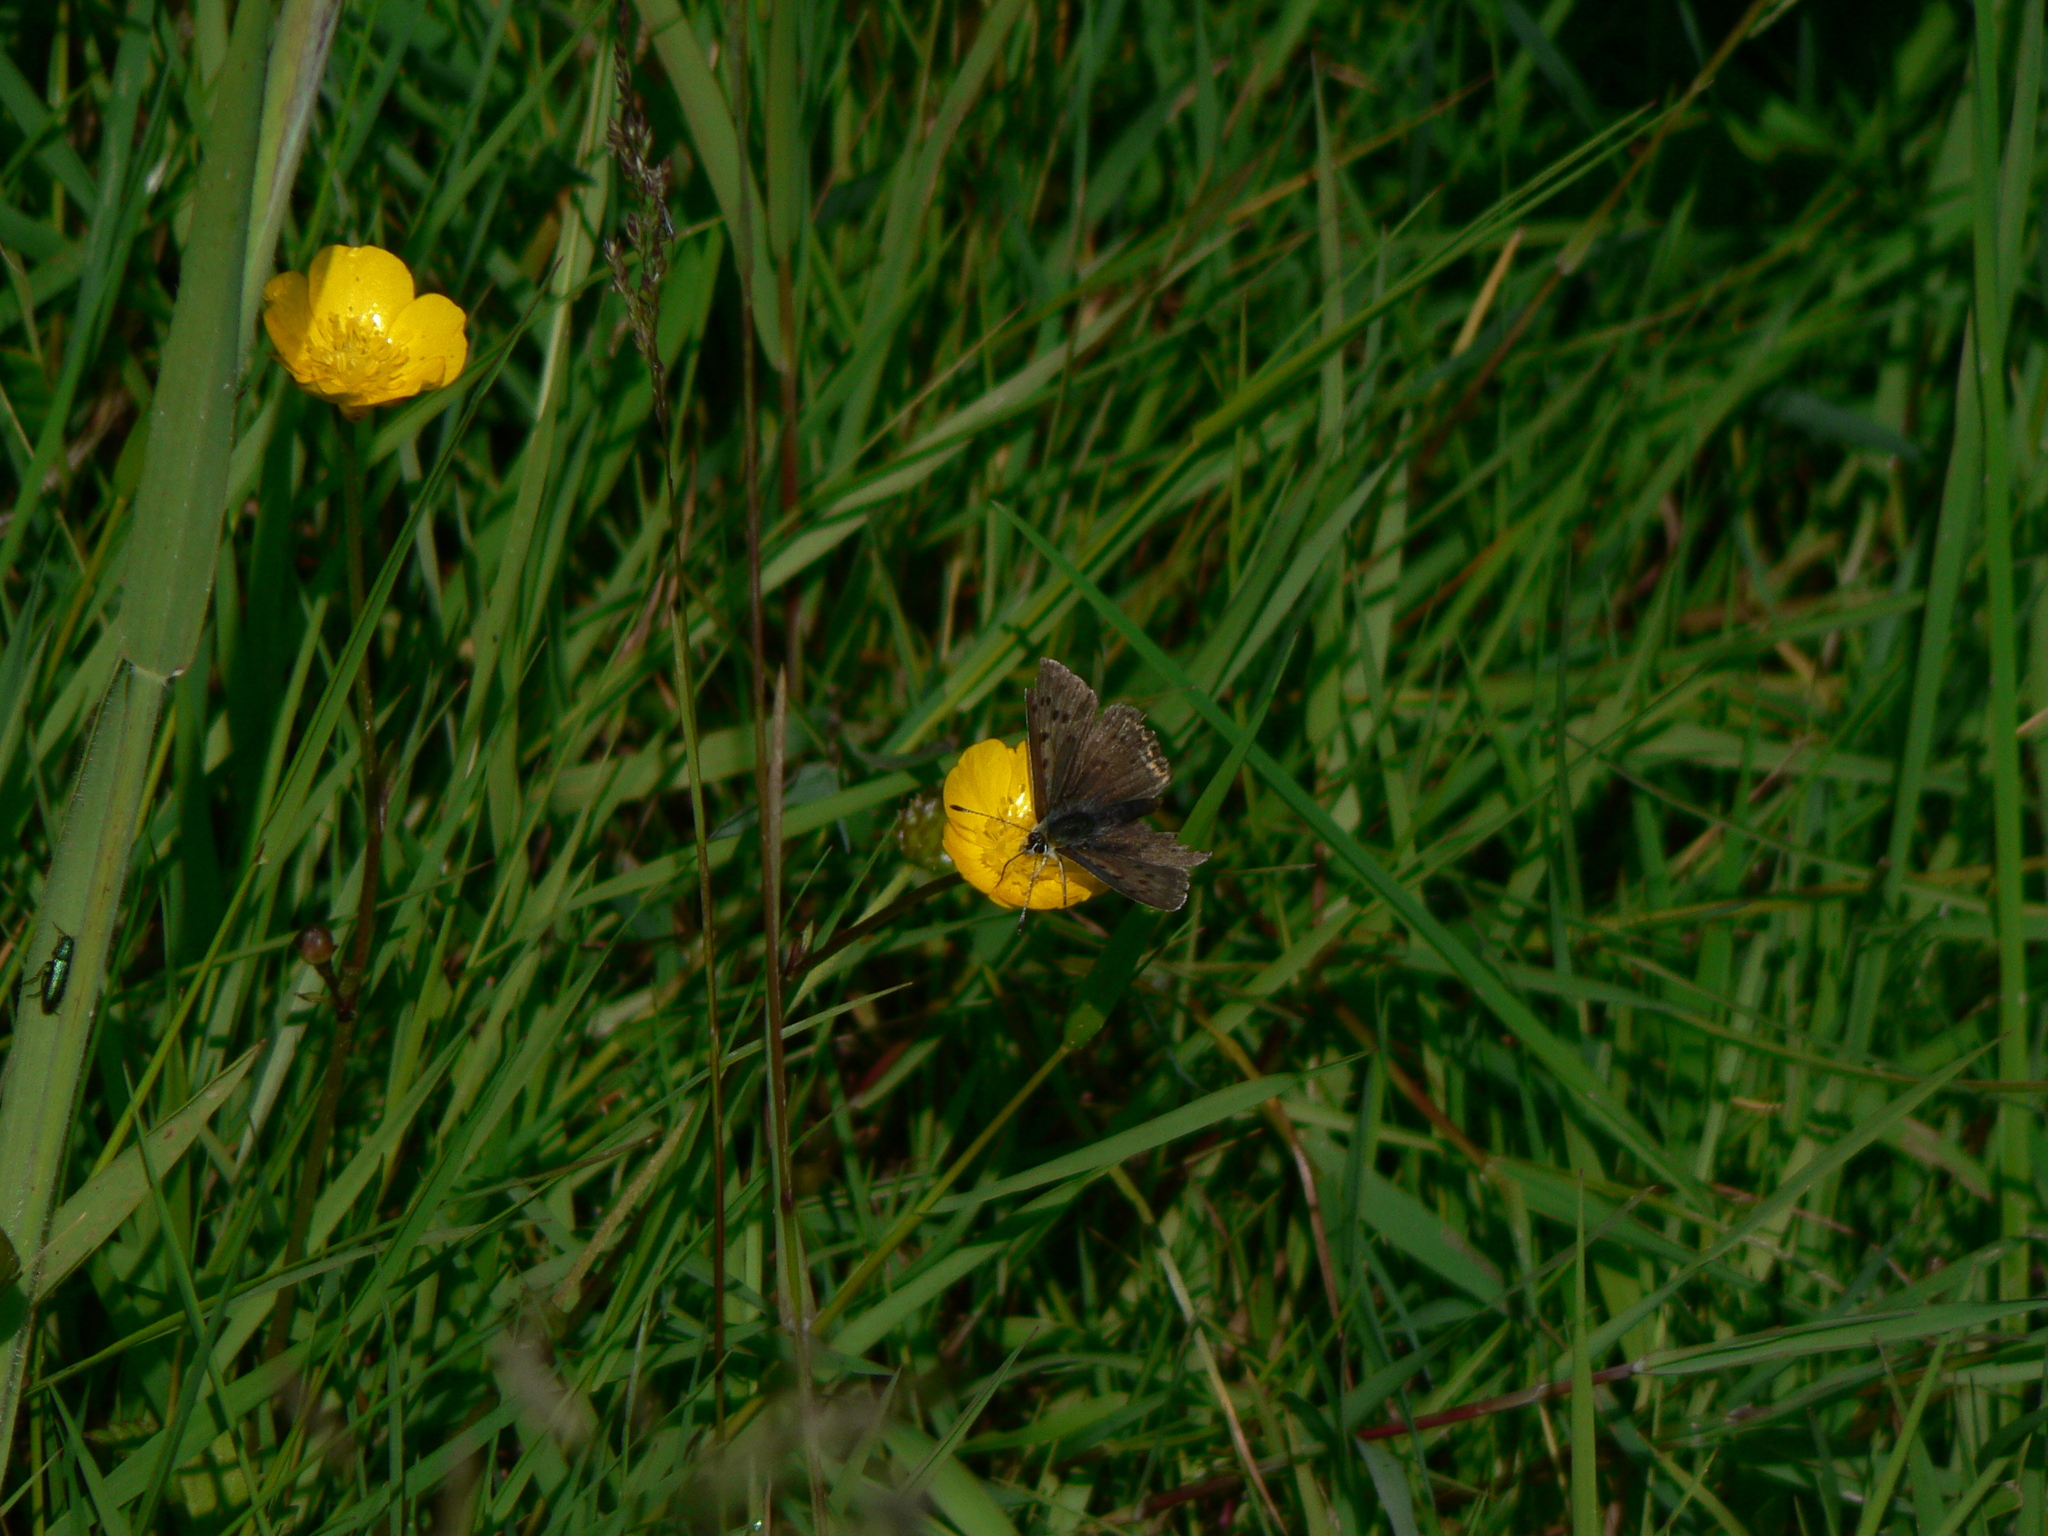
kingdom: Animalia
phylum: Arthropoda
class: Insecta
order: Lepidoptera
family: Lycaenidae
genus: Loweia
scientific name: Loweia tityrus
